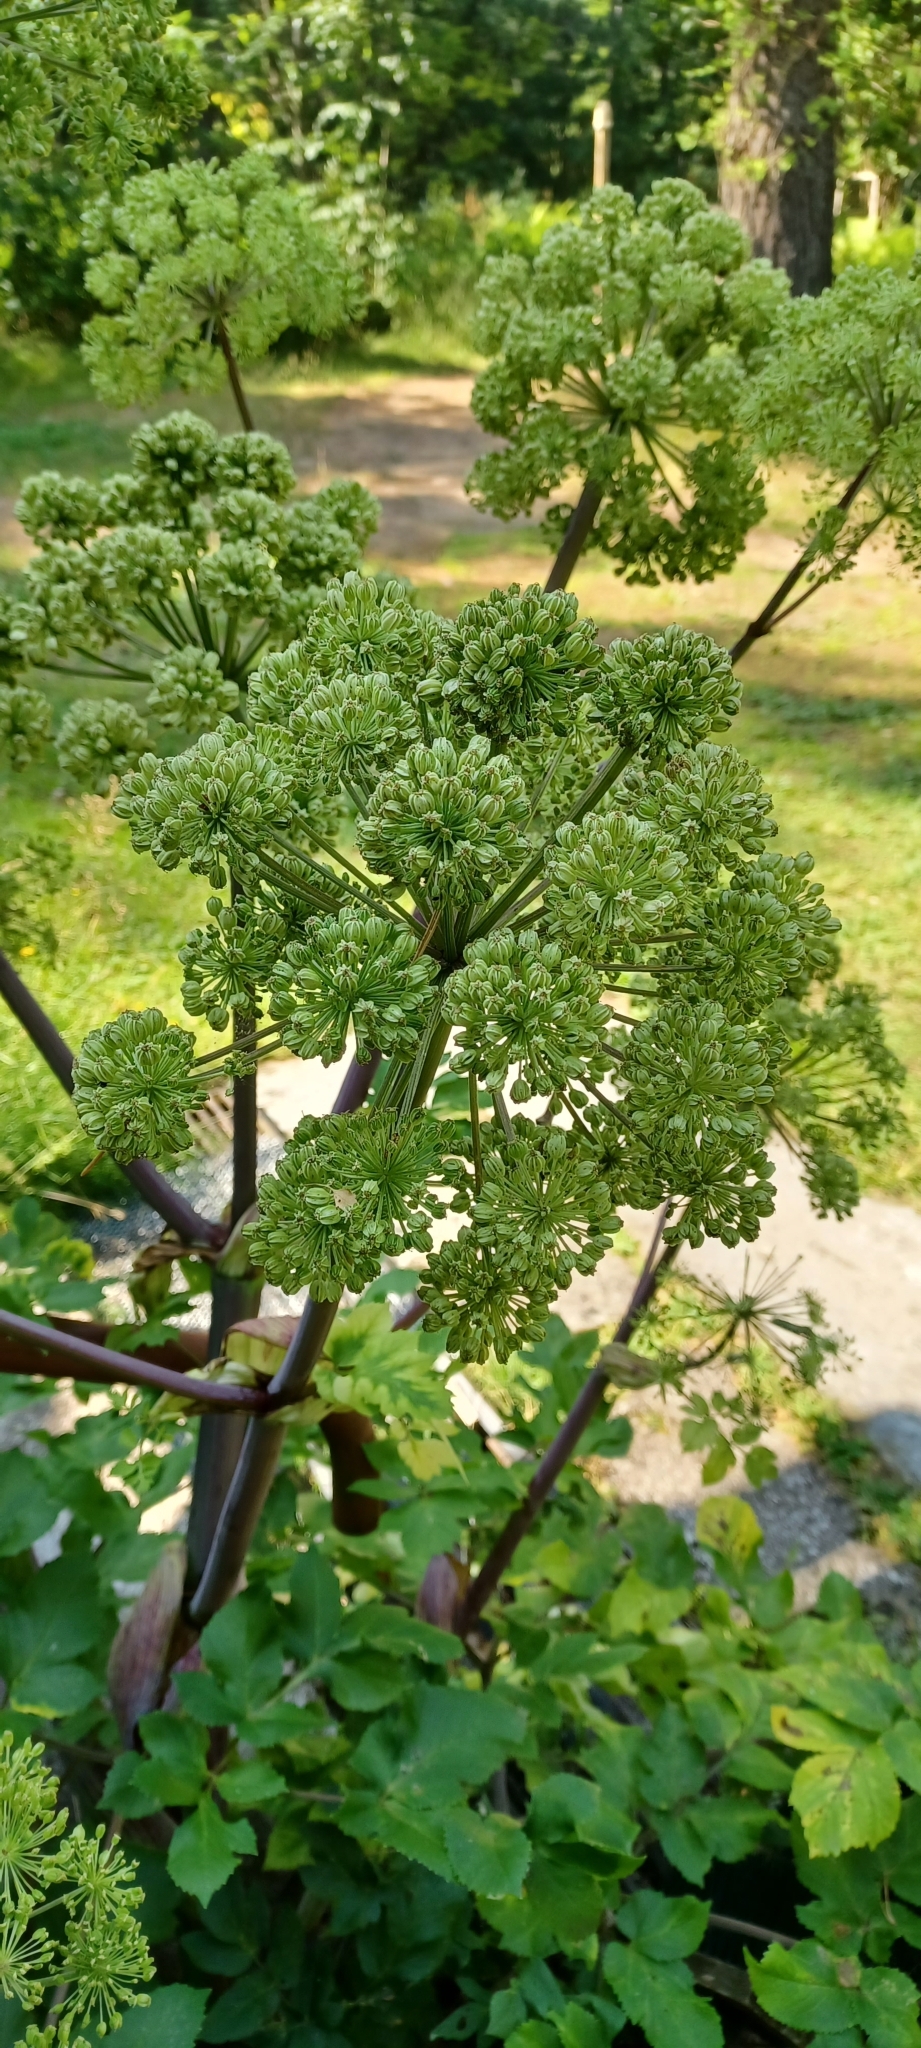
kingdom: Plantae
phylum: Tracheophyta
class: Magnoliopsida
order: Apiales
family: Apiaceae
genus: Angelica
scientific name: Angelica archangelica
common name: Garden angelica
